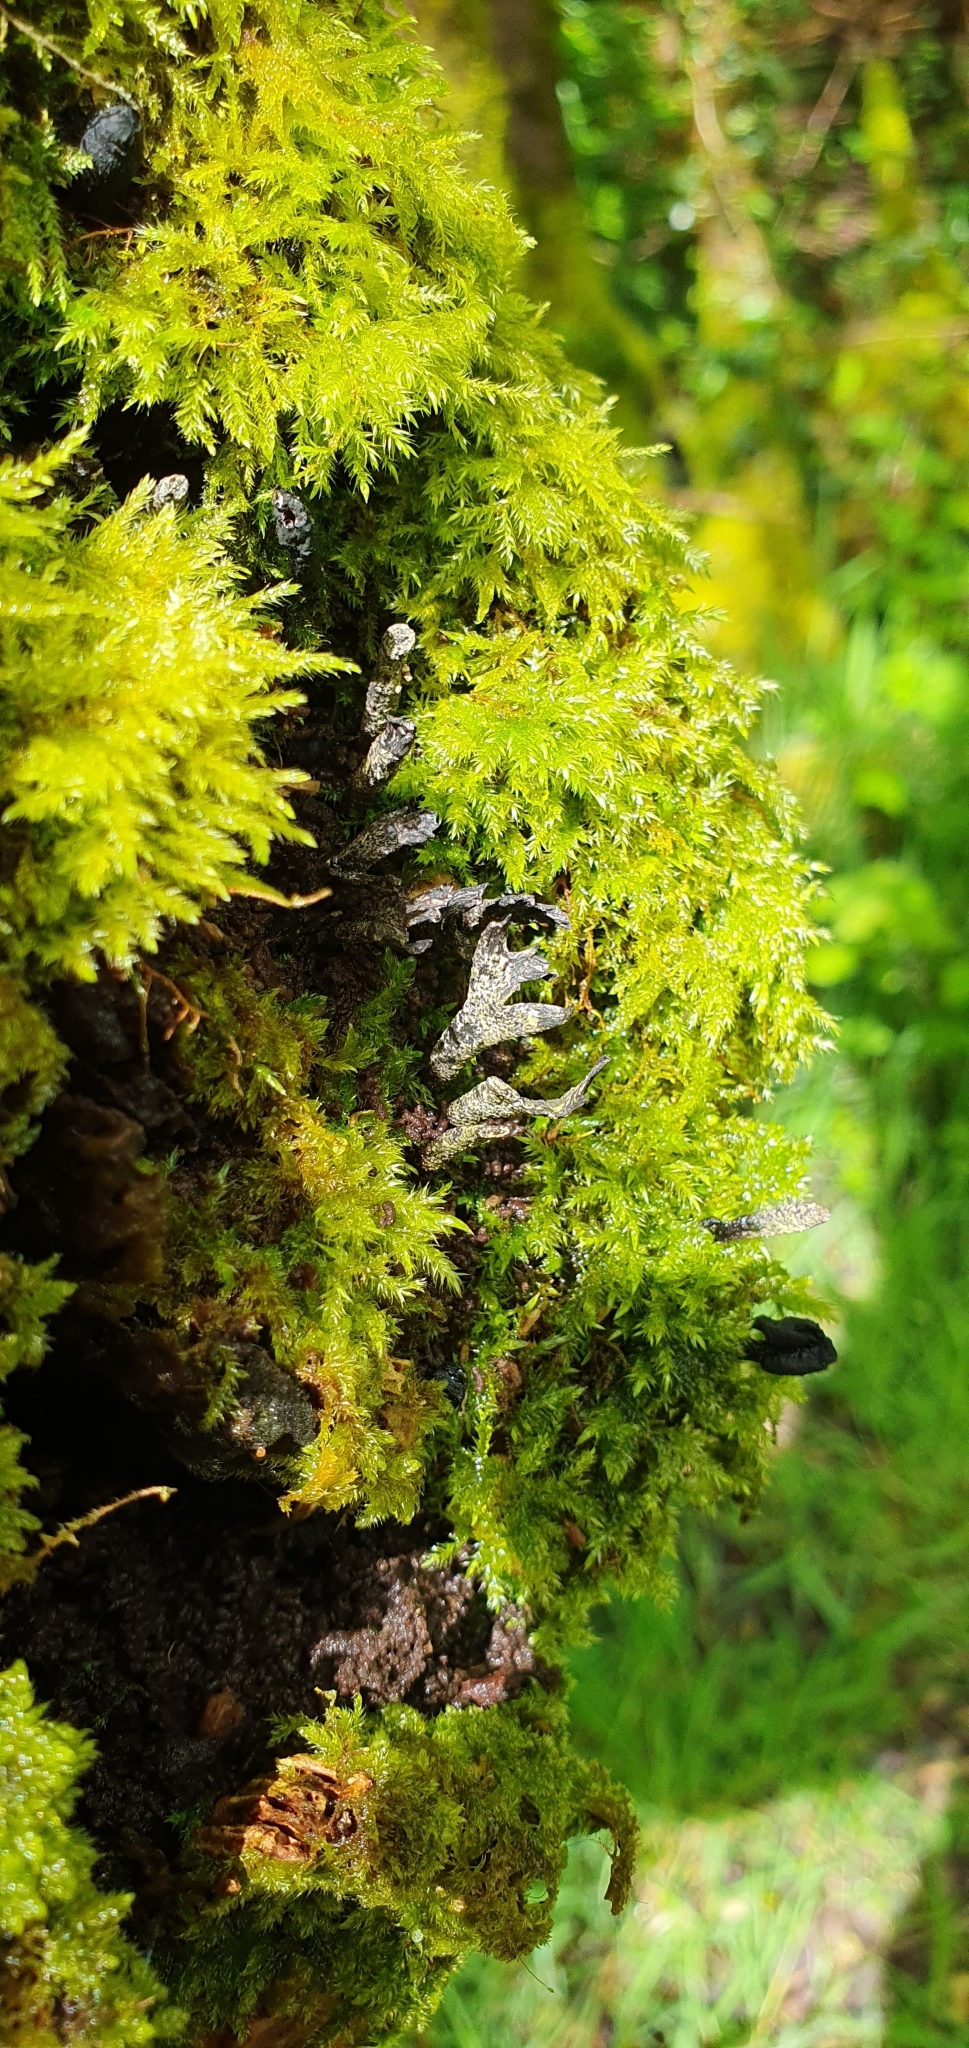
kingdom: Fungi
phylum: Ascomycota
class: Sordariomycetes
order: Xylariales
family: Xylariaceae
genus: Xylaria
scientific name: Xylaria hypoxylon
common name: Candle-snuff fungus
